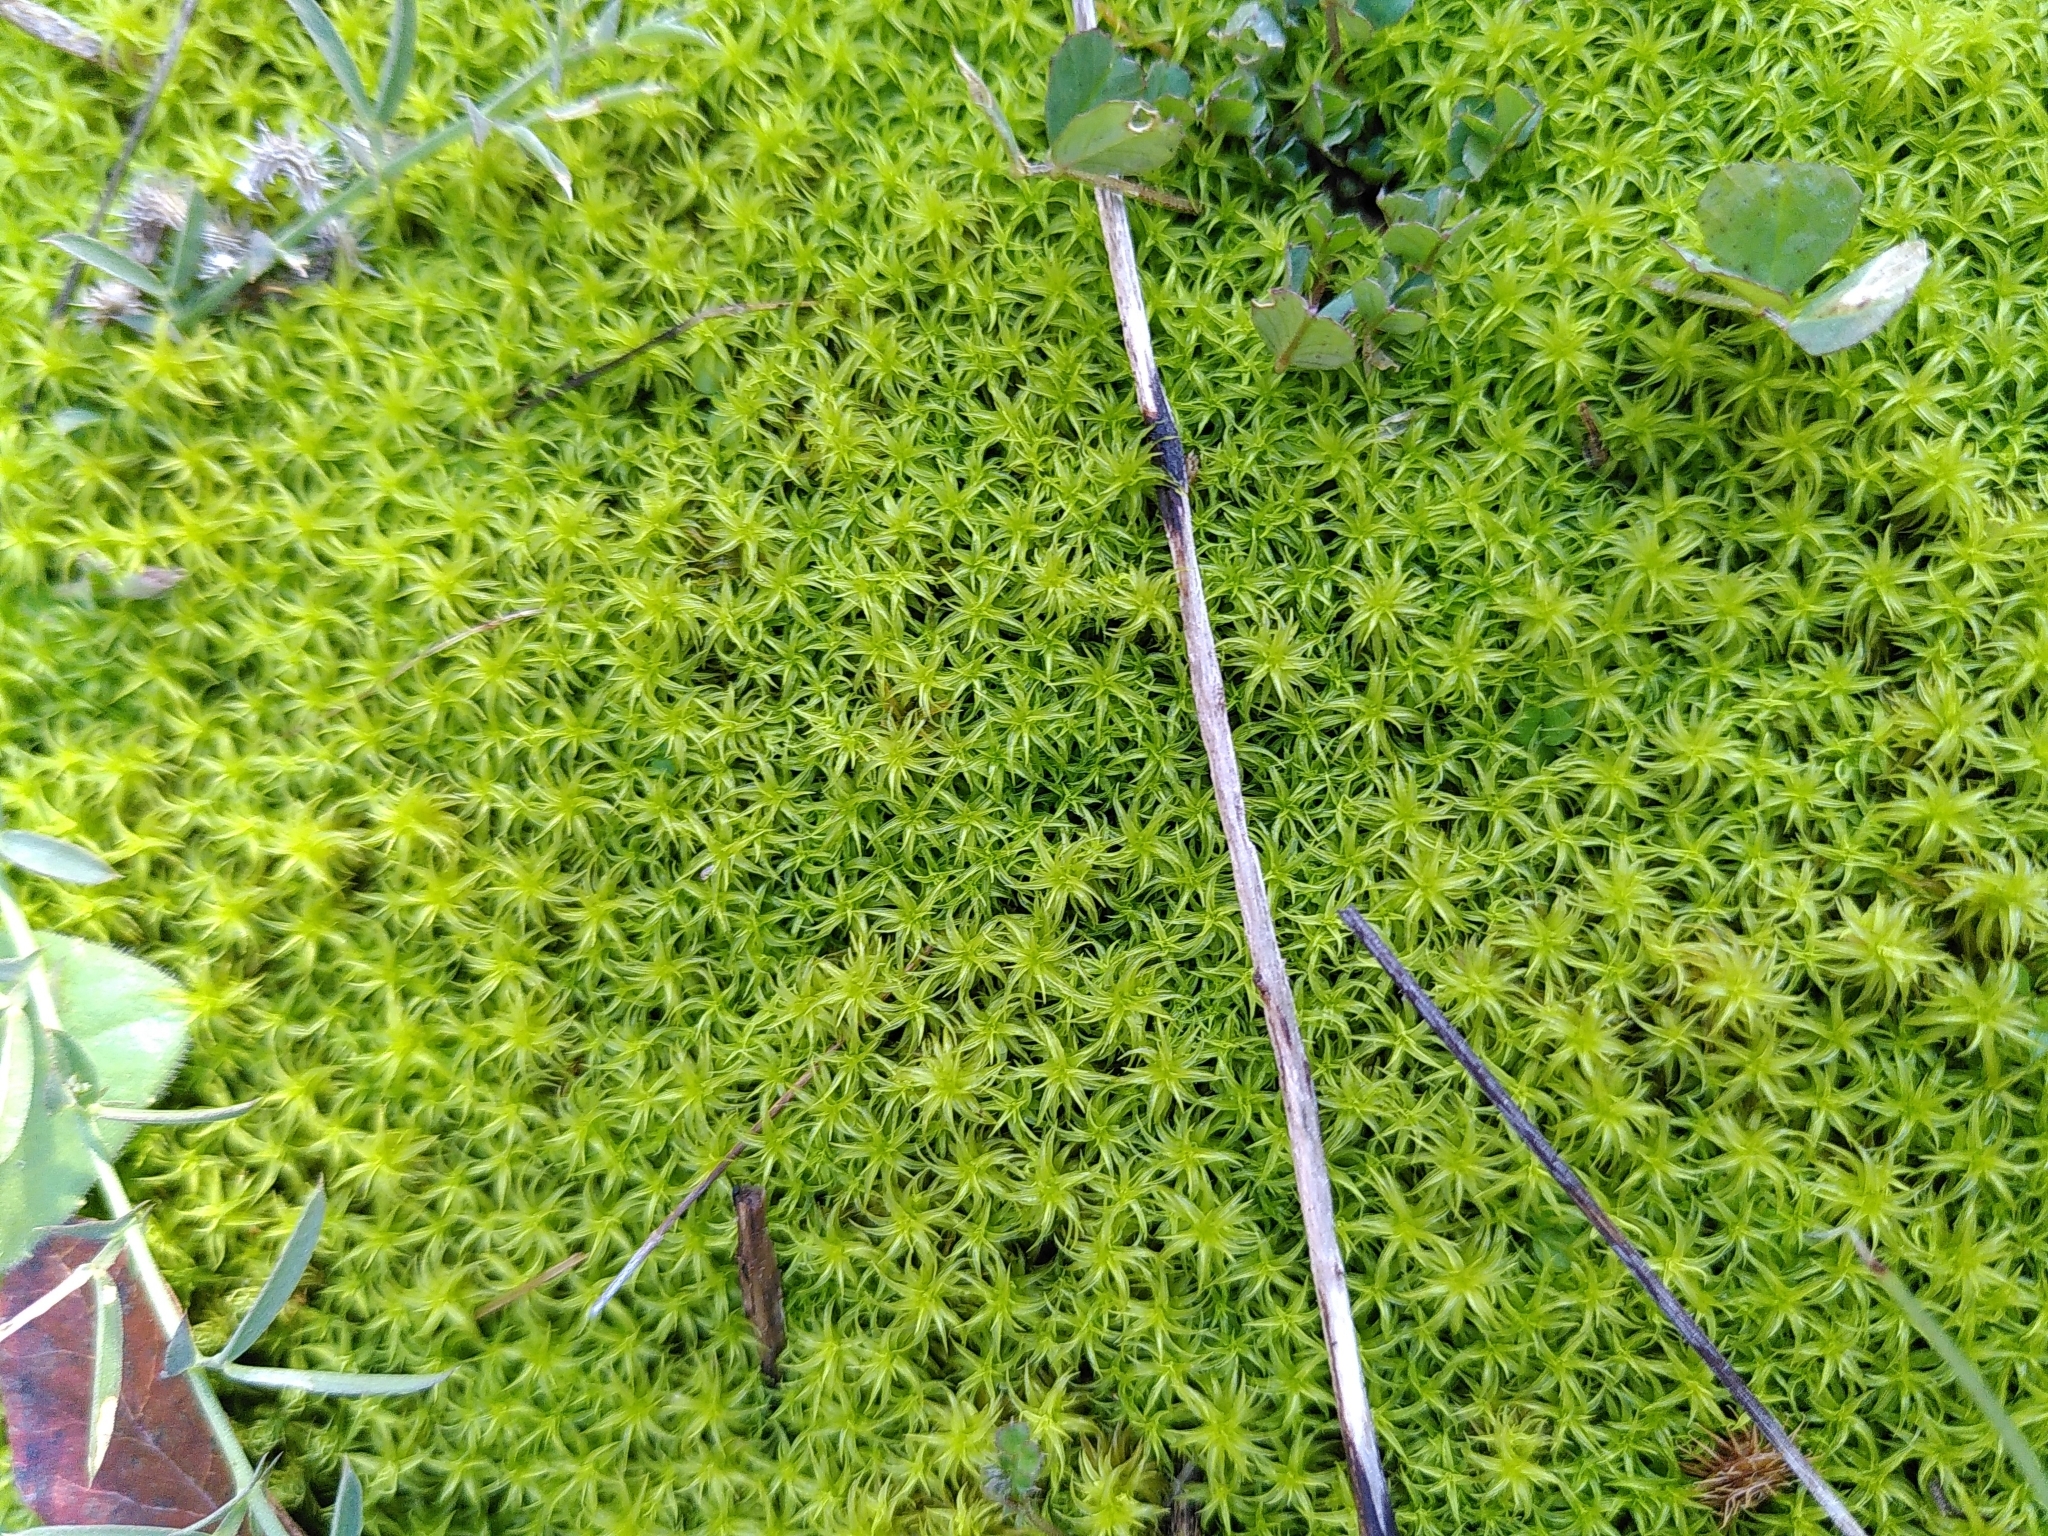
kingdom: Plantae
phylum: Bryophyta
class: Bryopsida
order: Pottiales
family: Pottiaceae
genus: Pleurochaete
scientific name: Pleurochaete squarrosa
